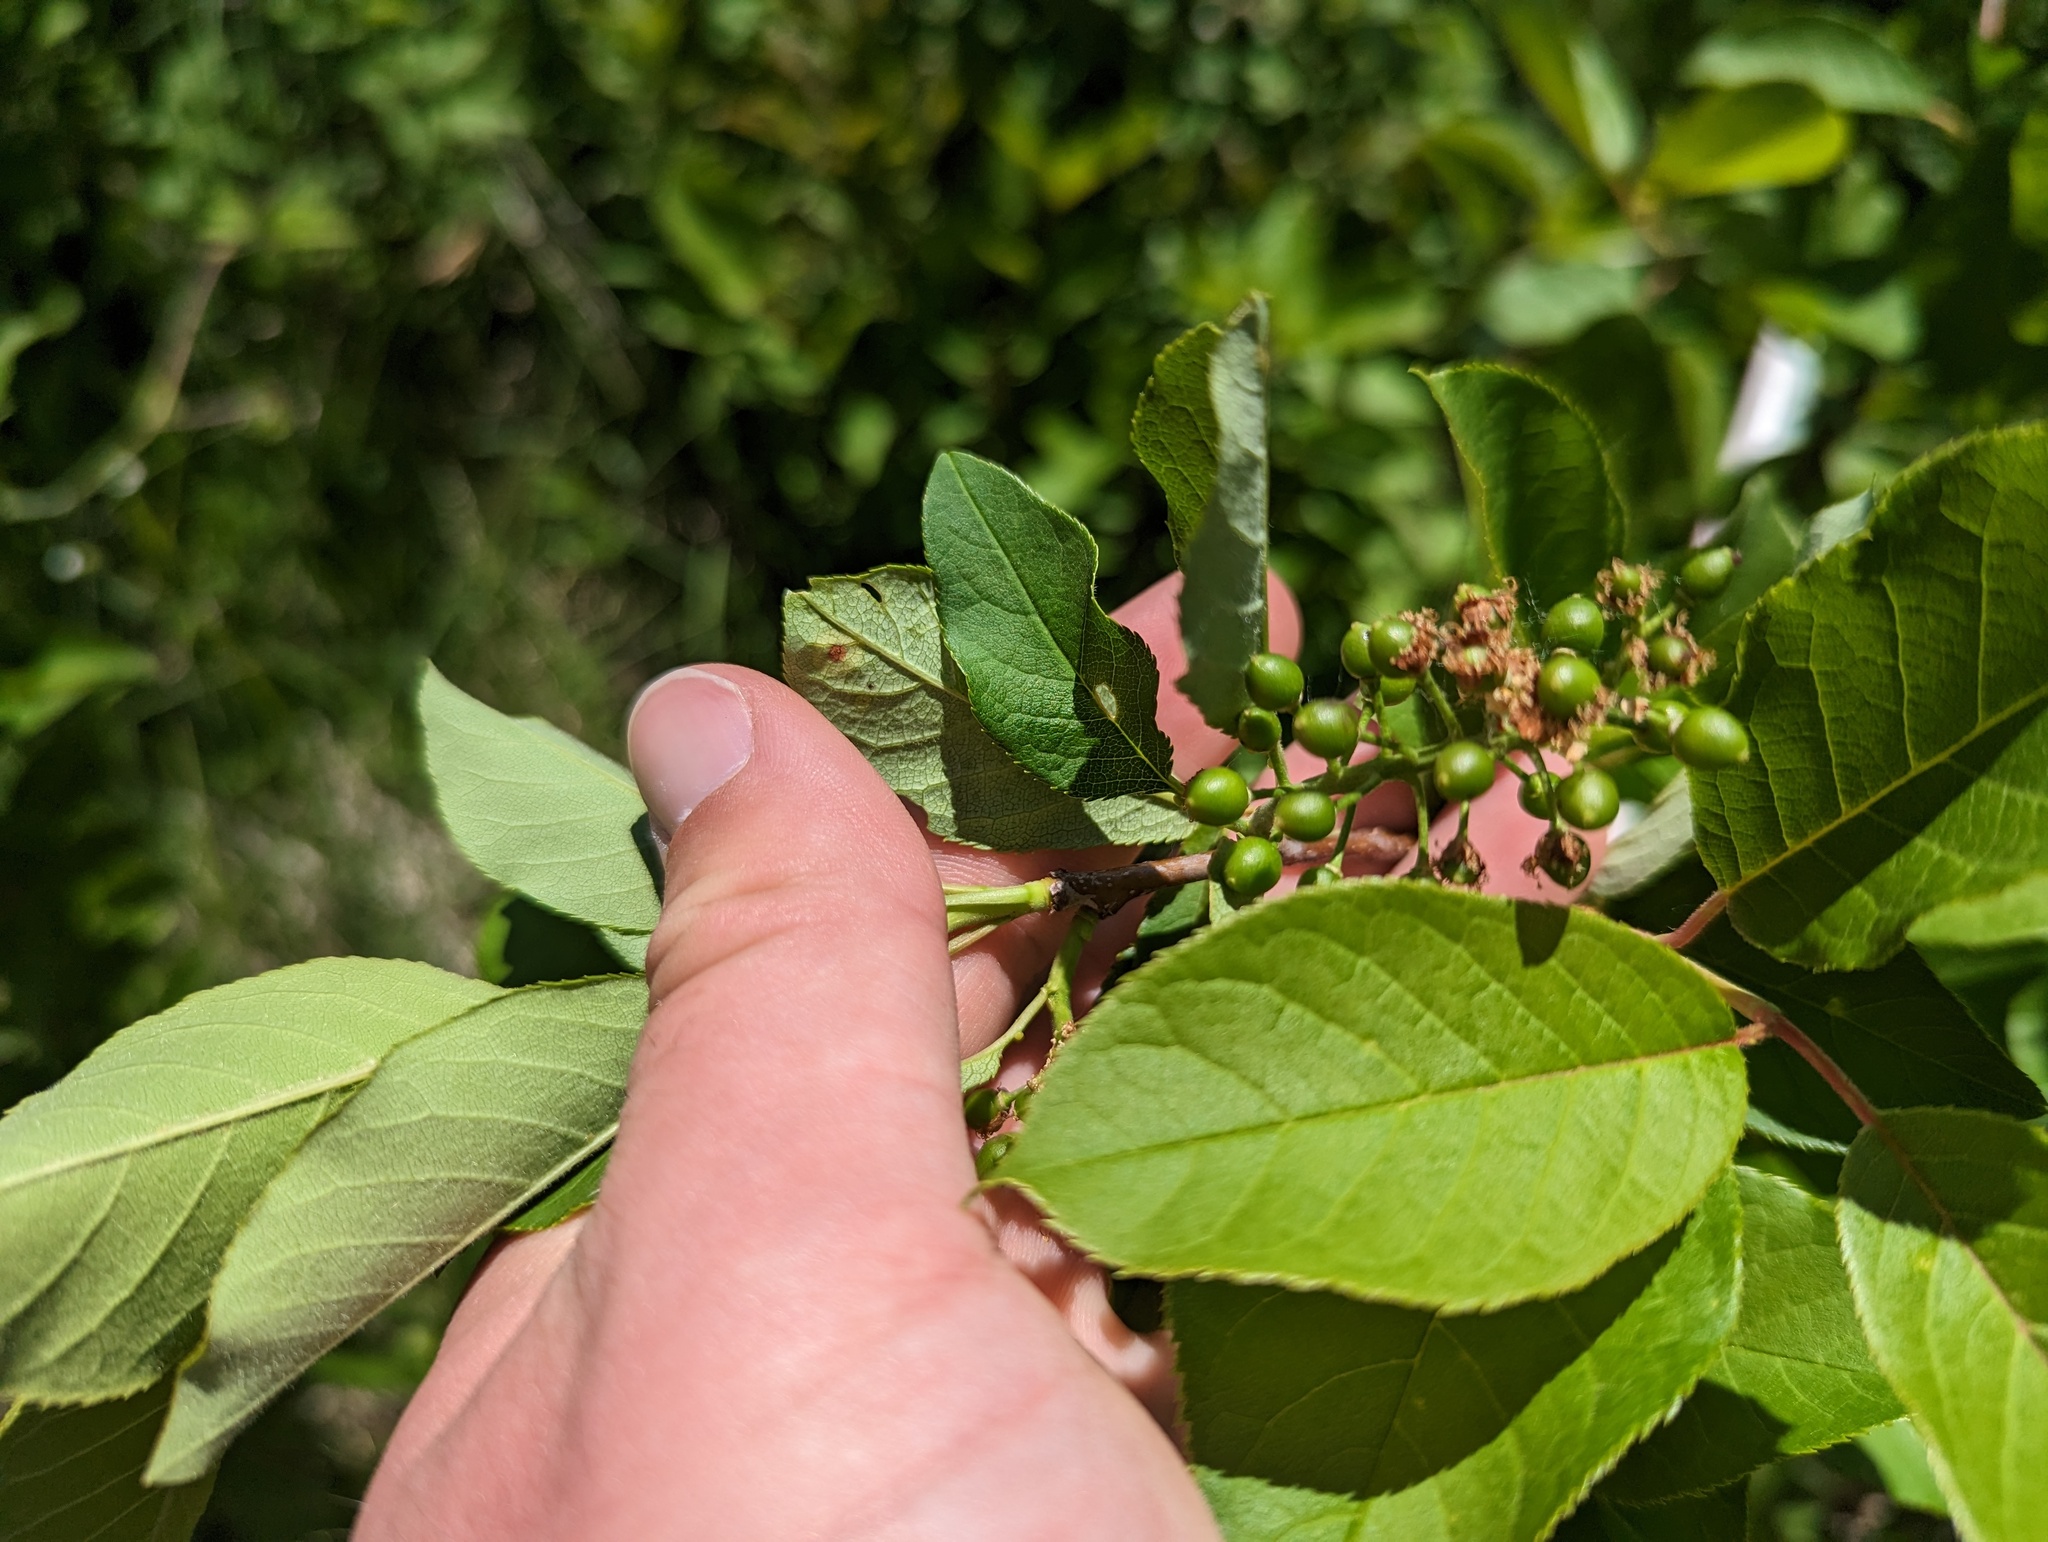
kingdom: Plantae
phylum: Tracheophyta
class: Magnoliopsida
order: Rosales
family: Rosaceae
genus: Prunus
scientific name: Prunus virginiana
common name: Chokecherry
